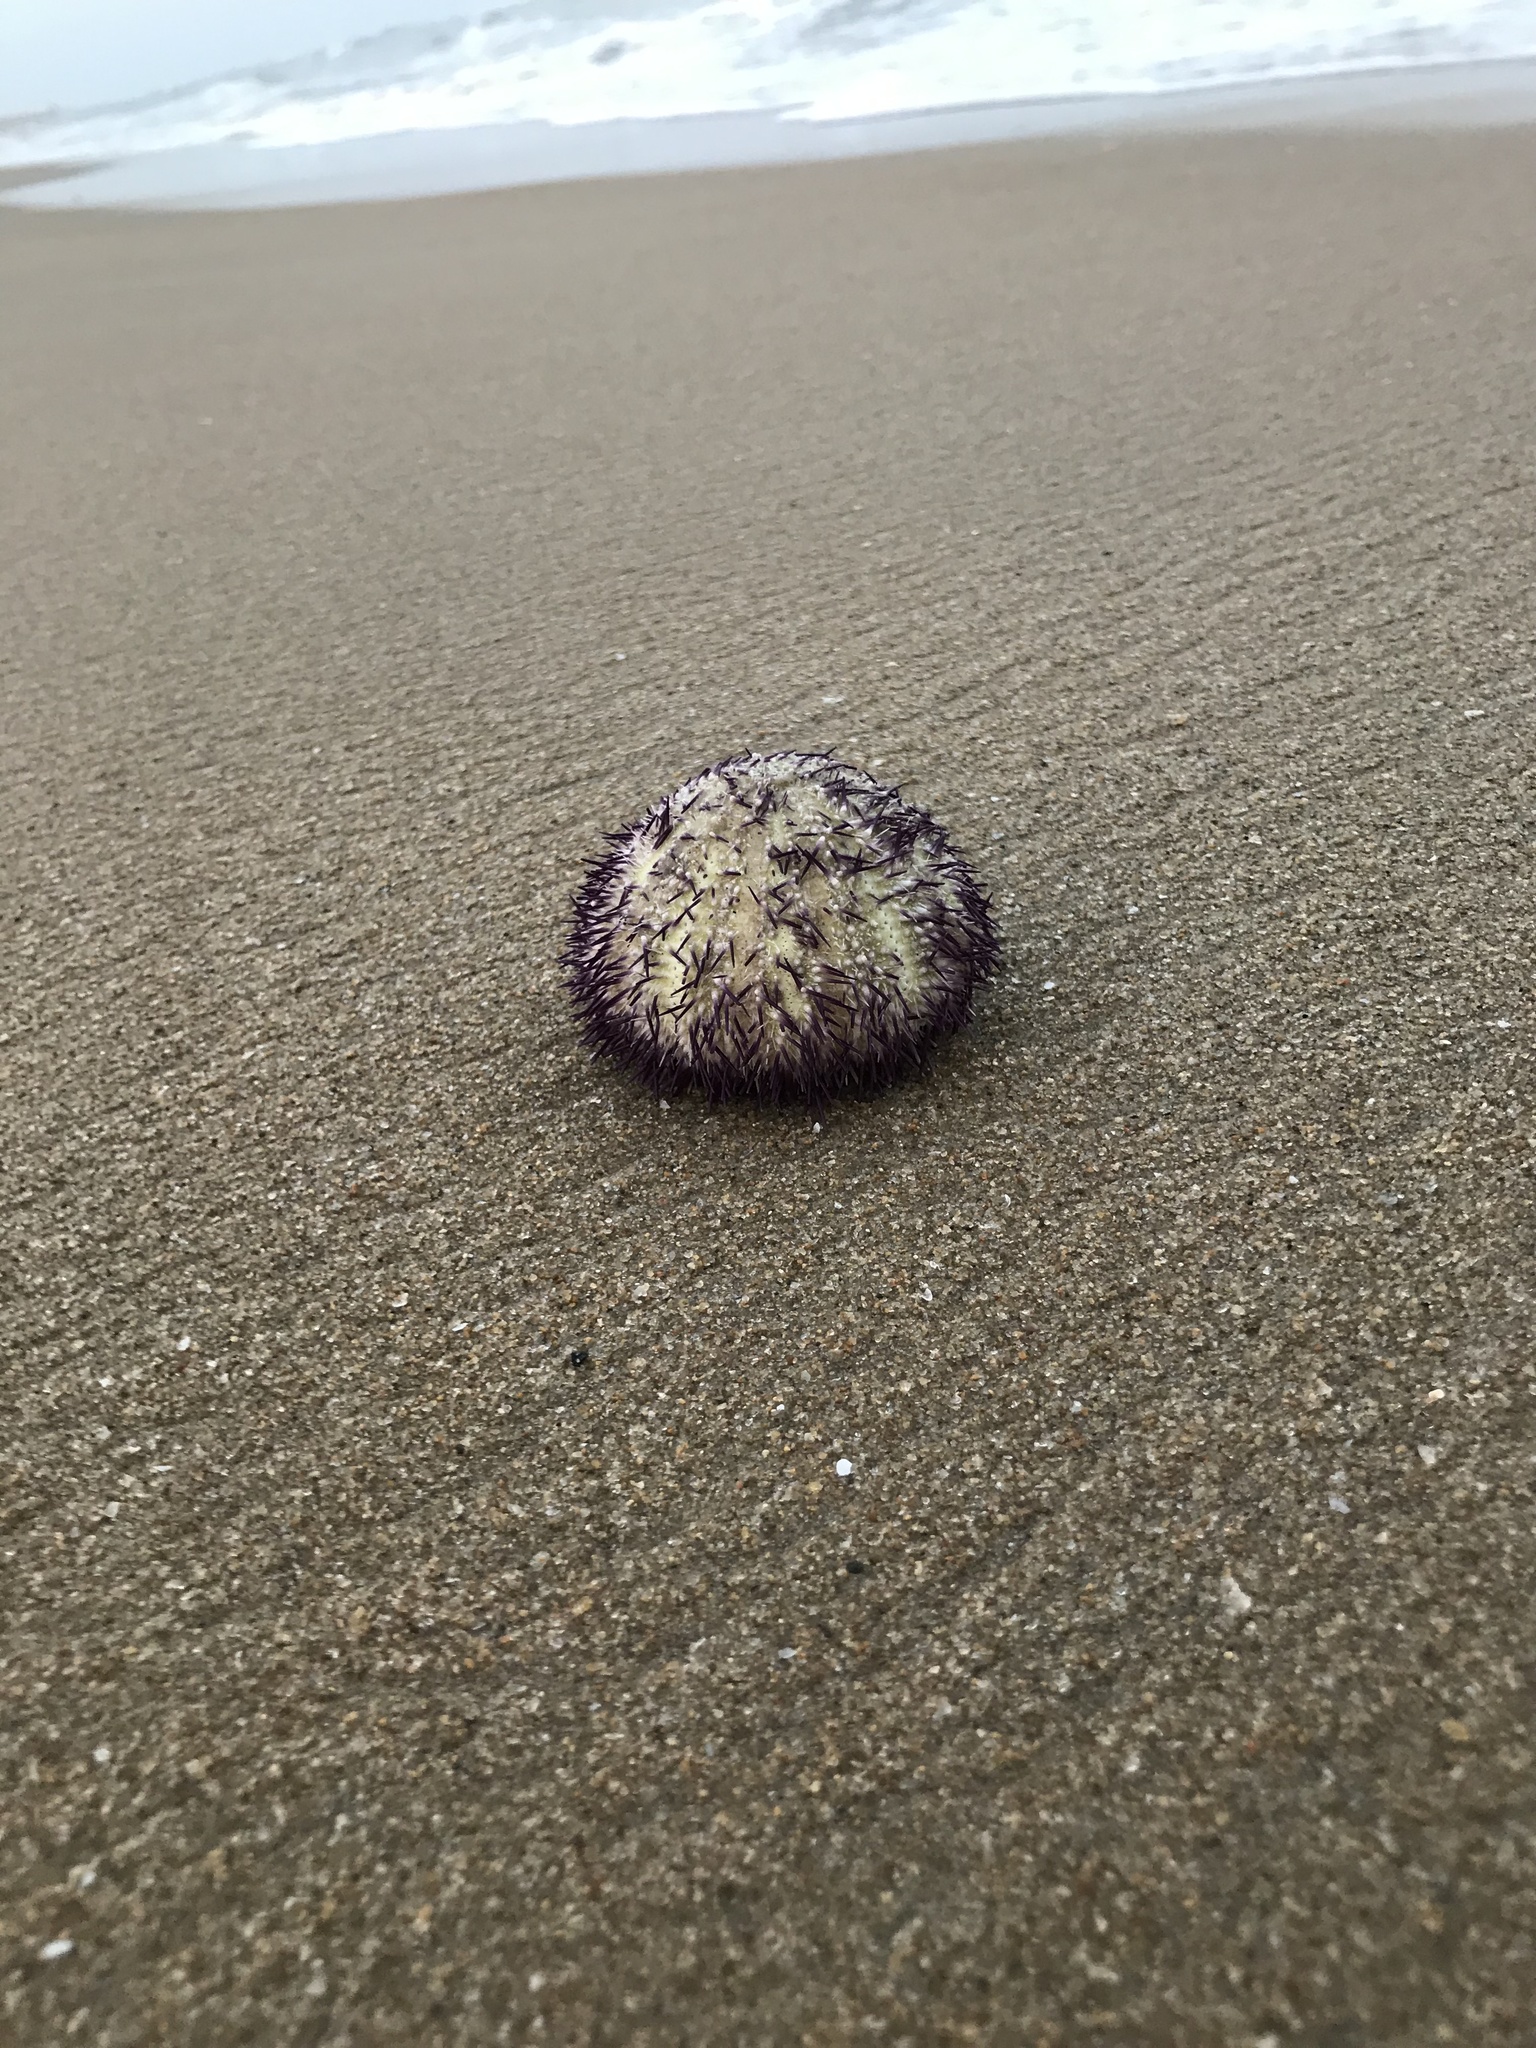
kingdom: Animalia
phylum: Echinodermata
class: Echinoidea
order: Camarodonta
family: Temnopleuridae
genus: Salmacis
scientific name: Salmacis virgulata
